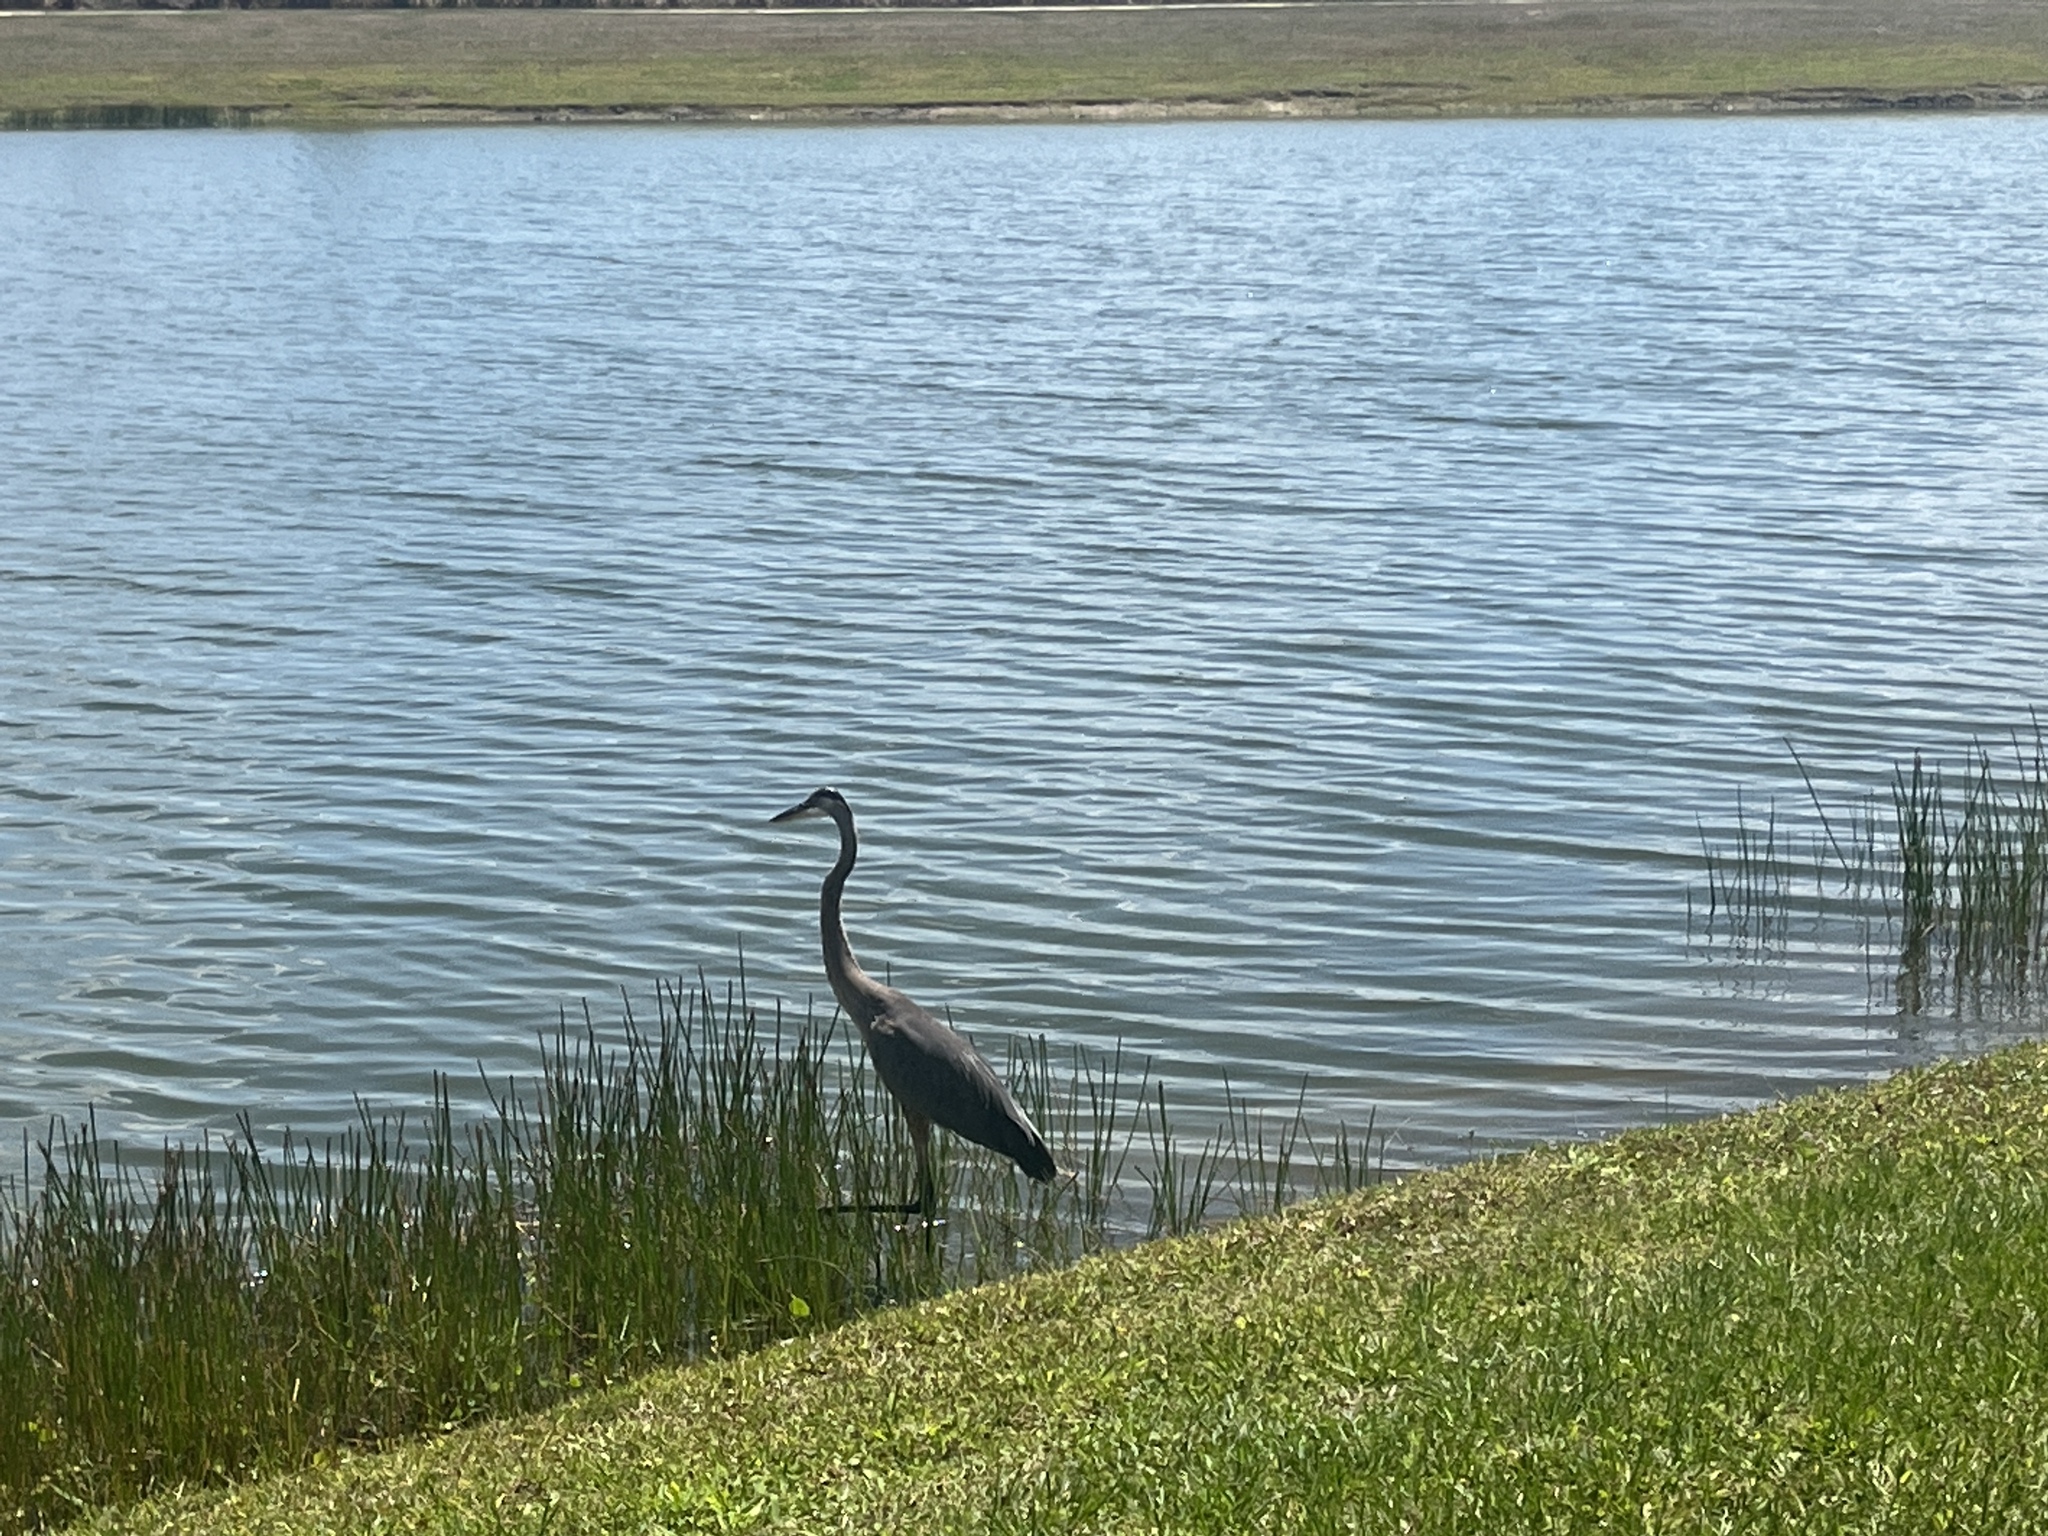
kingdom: Animalia
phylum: Chordata
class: Aves
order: Pelecaniformes
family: Ardeidae
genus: Ardea
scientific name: Ardea herodias
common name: Great blue heron
